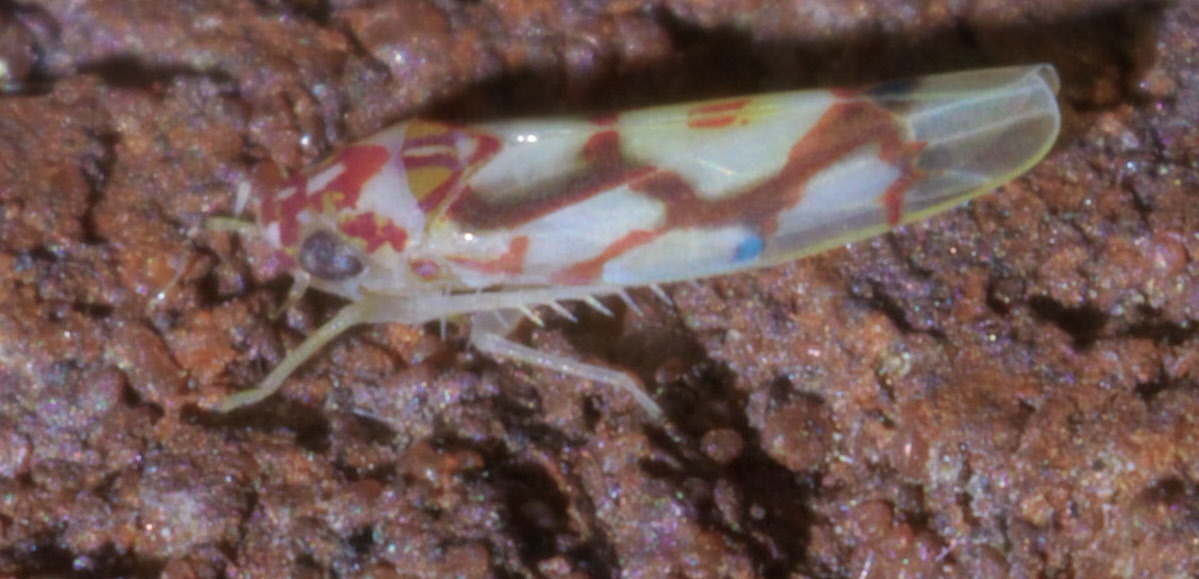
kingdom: Animalia
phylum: Arthropoda
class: Insecta
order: Hemiptera
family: Cicadellidae
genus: Eratoneura
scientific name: Eratoneura ligata
